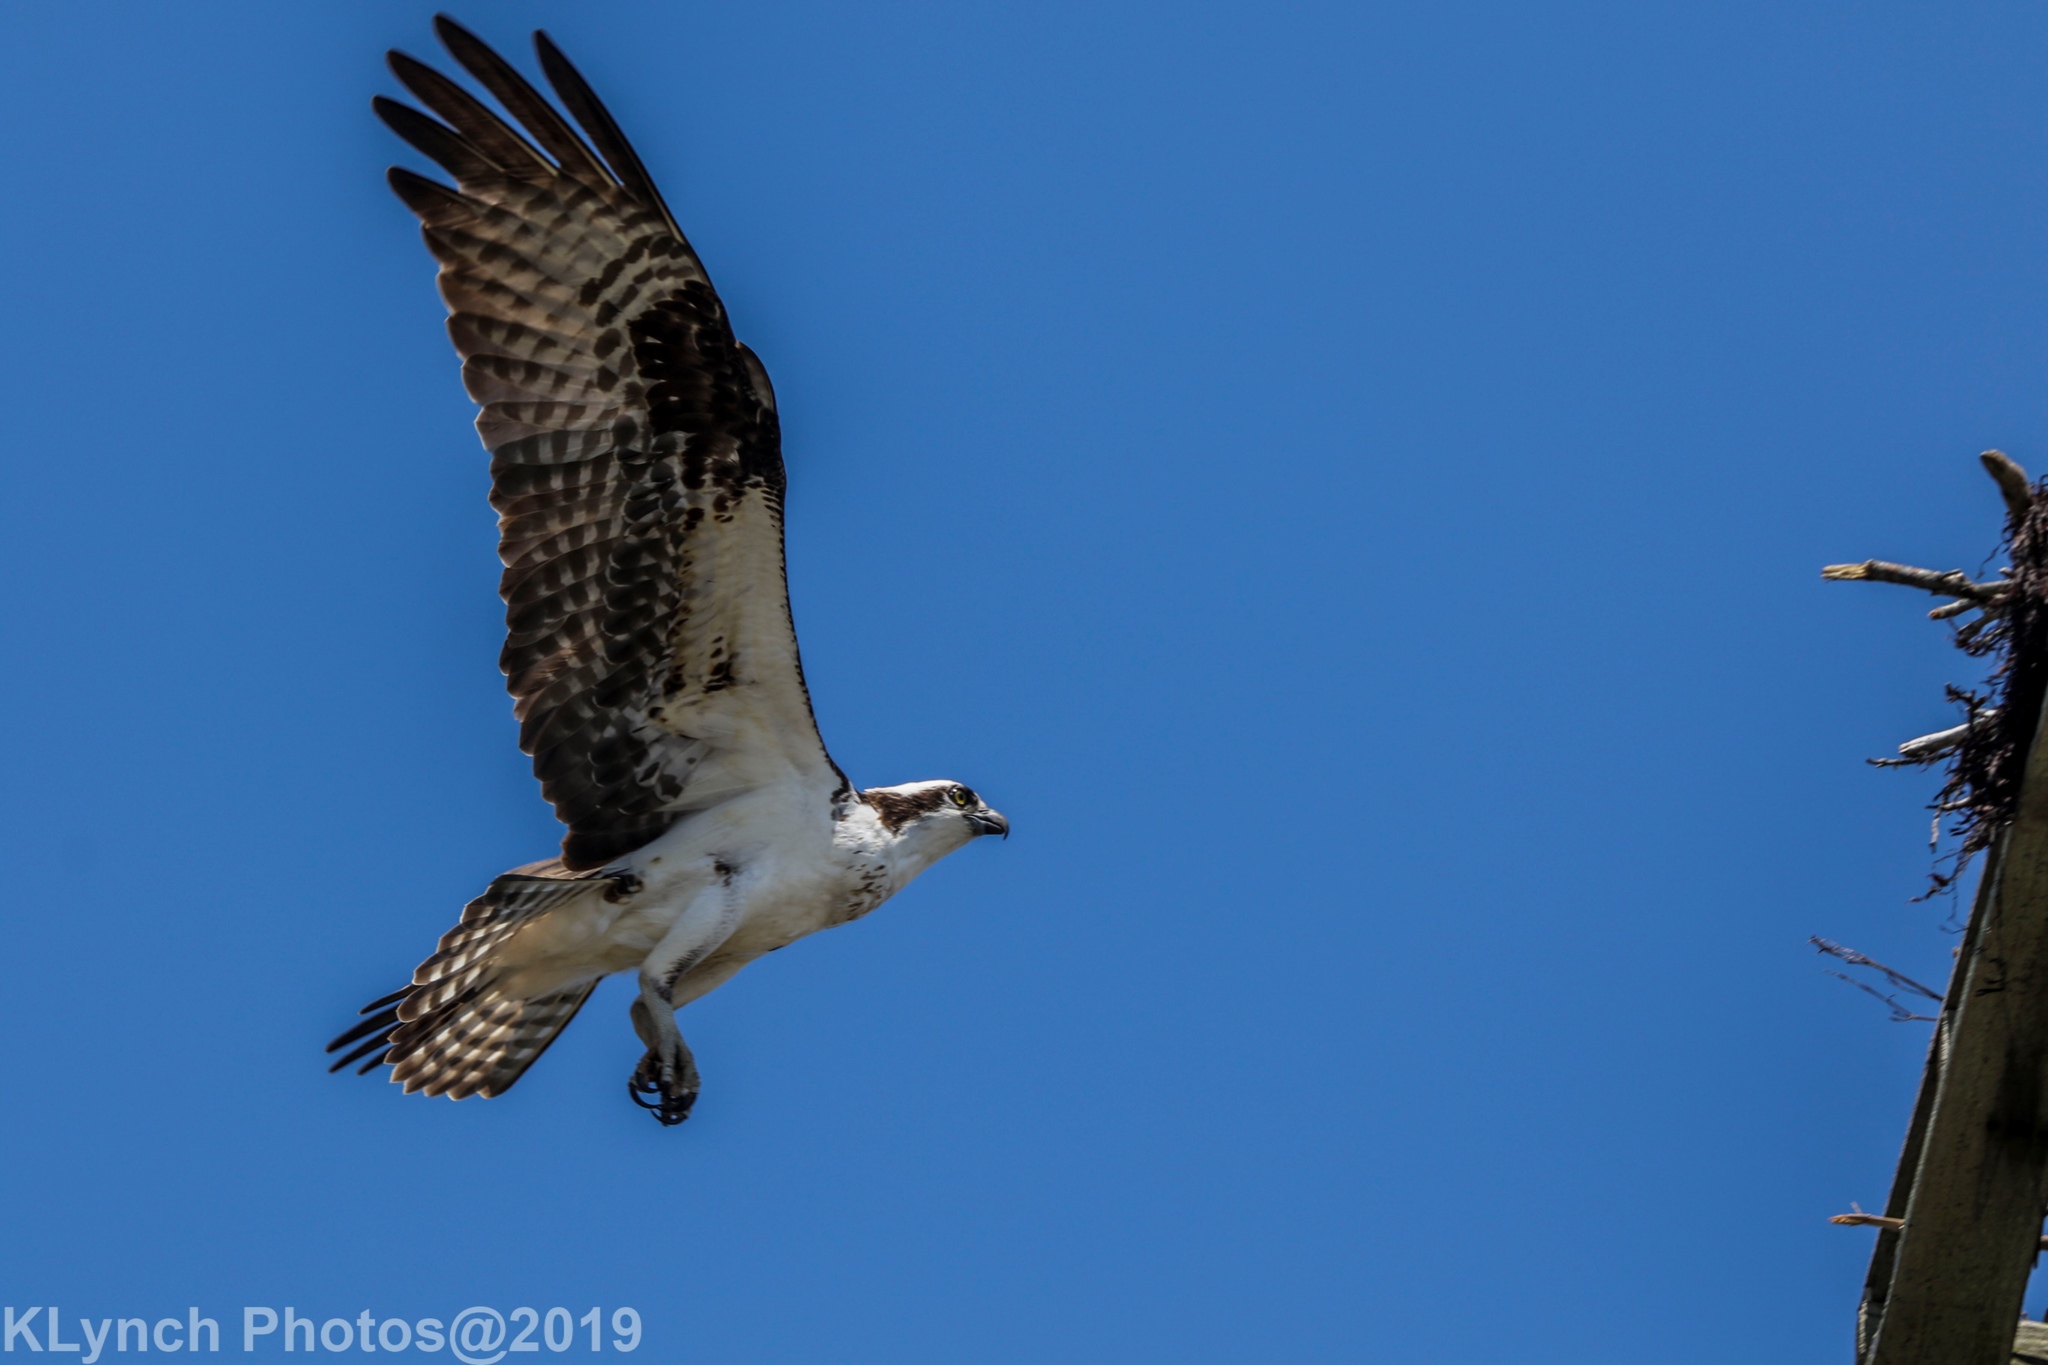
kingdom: Animalia
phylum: Chordata
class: Aves
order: Accipitriformes
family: Pandionidae
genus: Pandion
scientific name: Pandion haliaetus
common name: Osprey
